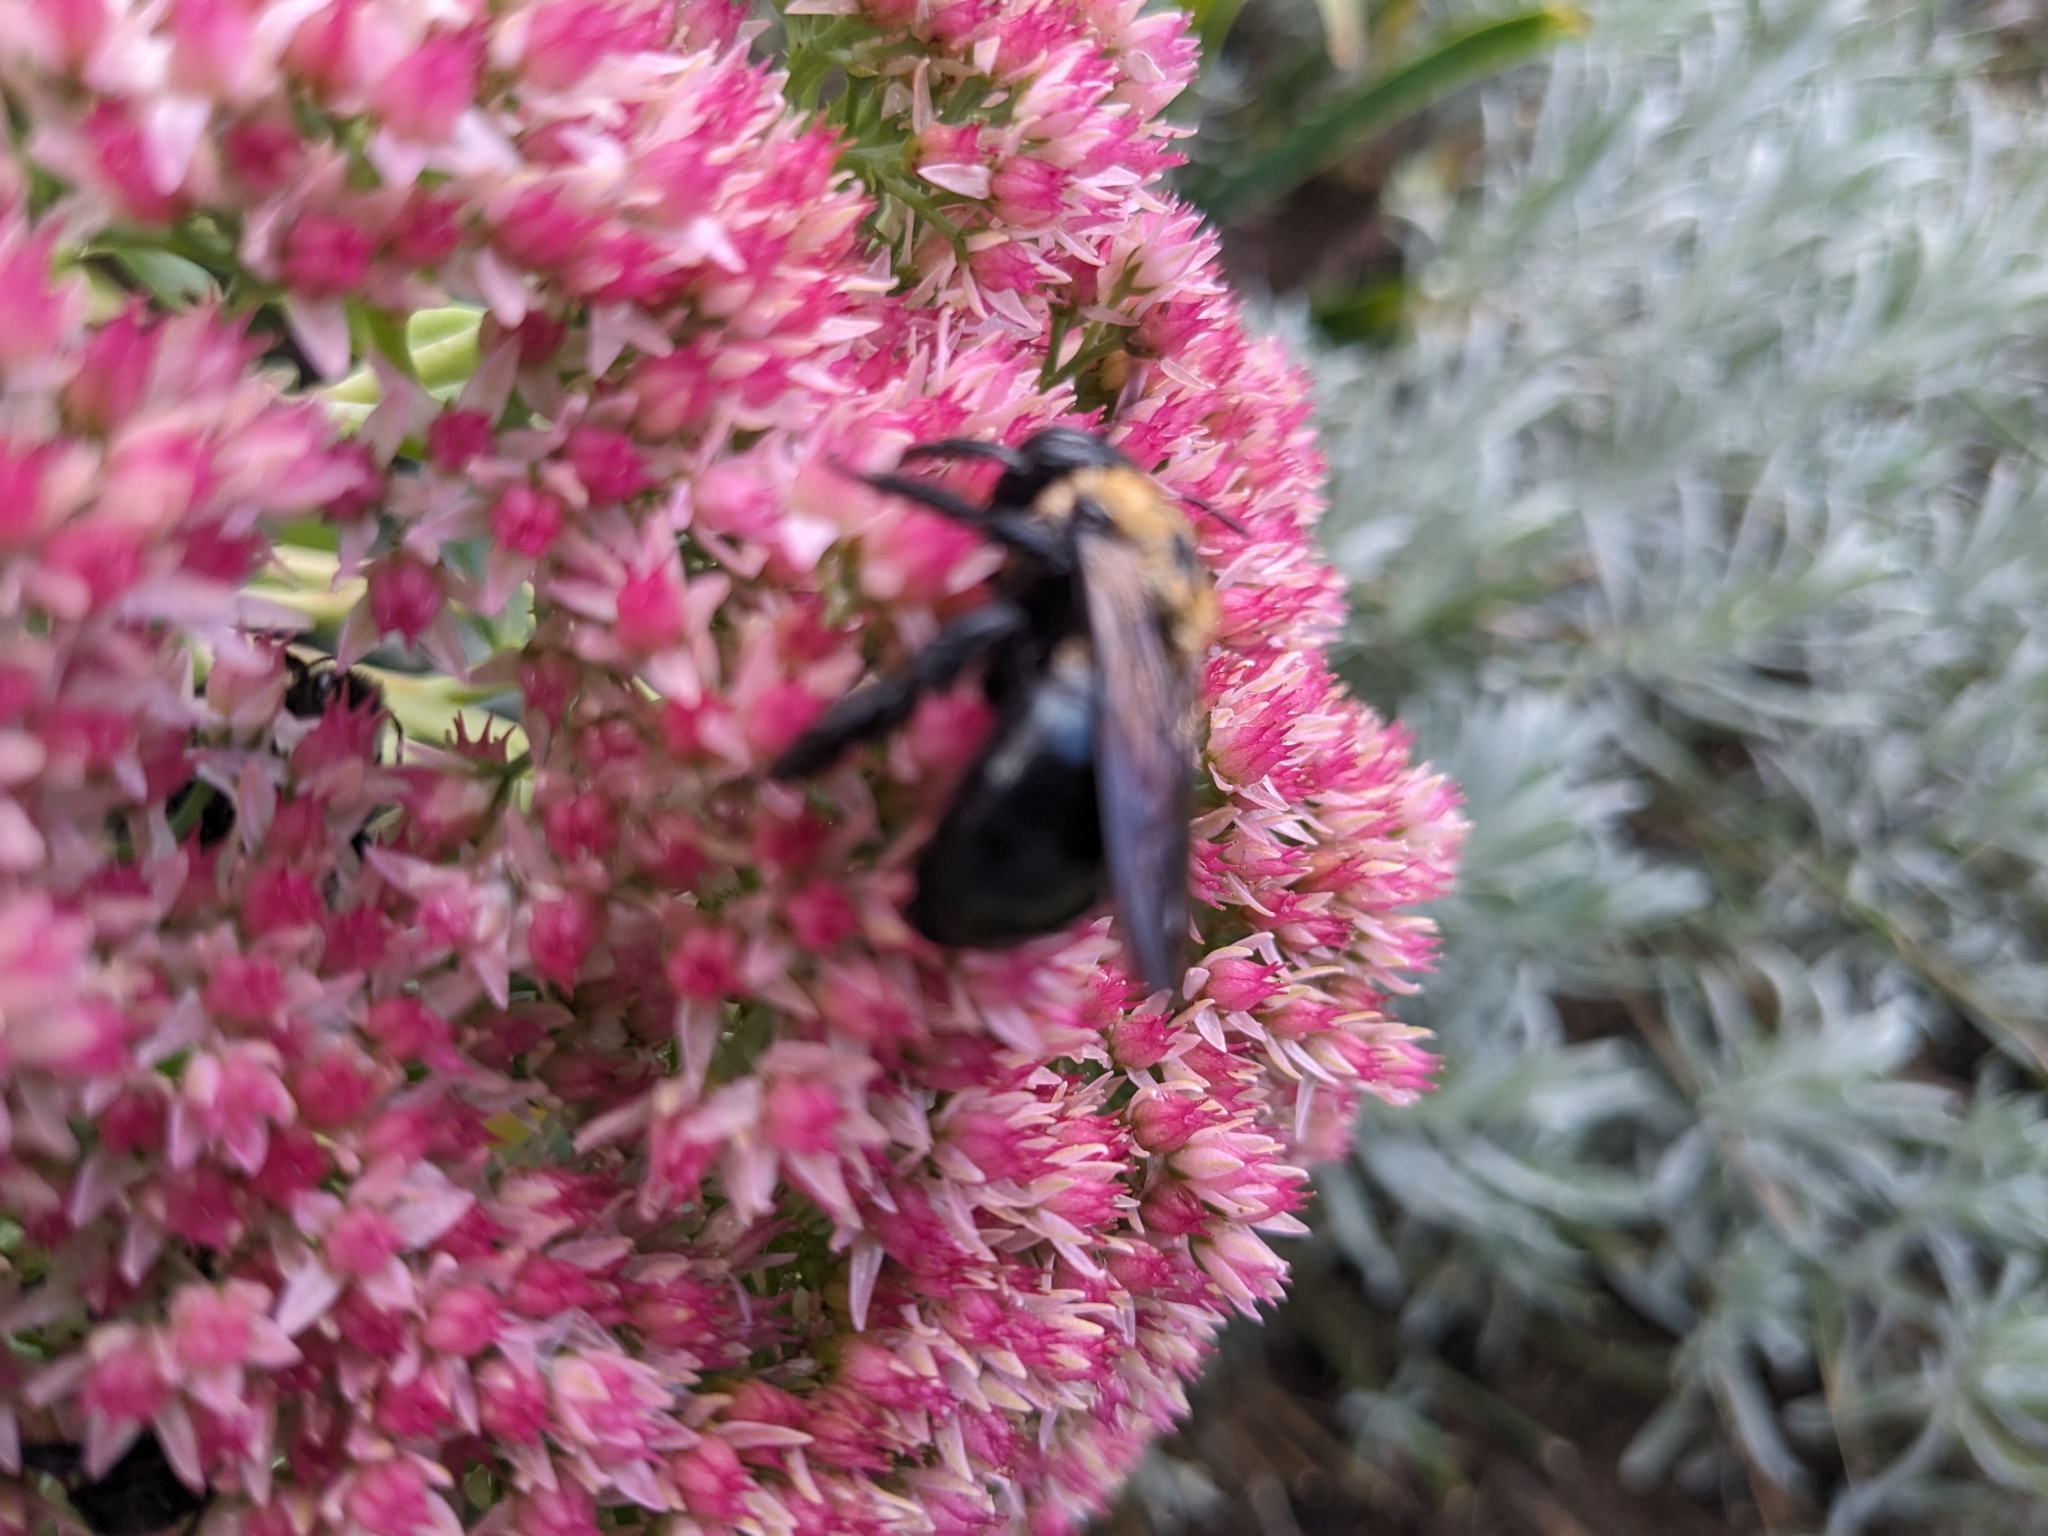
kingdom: Animalia
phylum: Arthropoda
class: Insecta
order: Hymenoptera
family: Apidae
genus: Xylocopa
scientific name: Xylocopa virginica
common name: Carpenter bee
